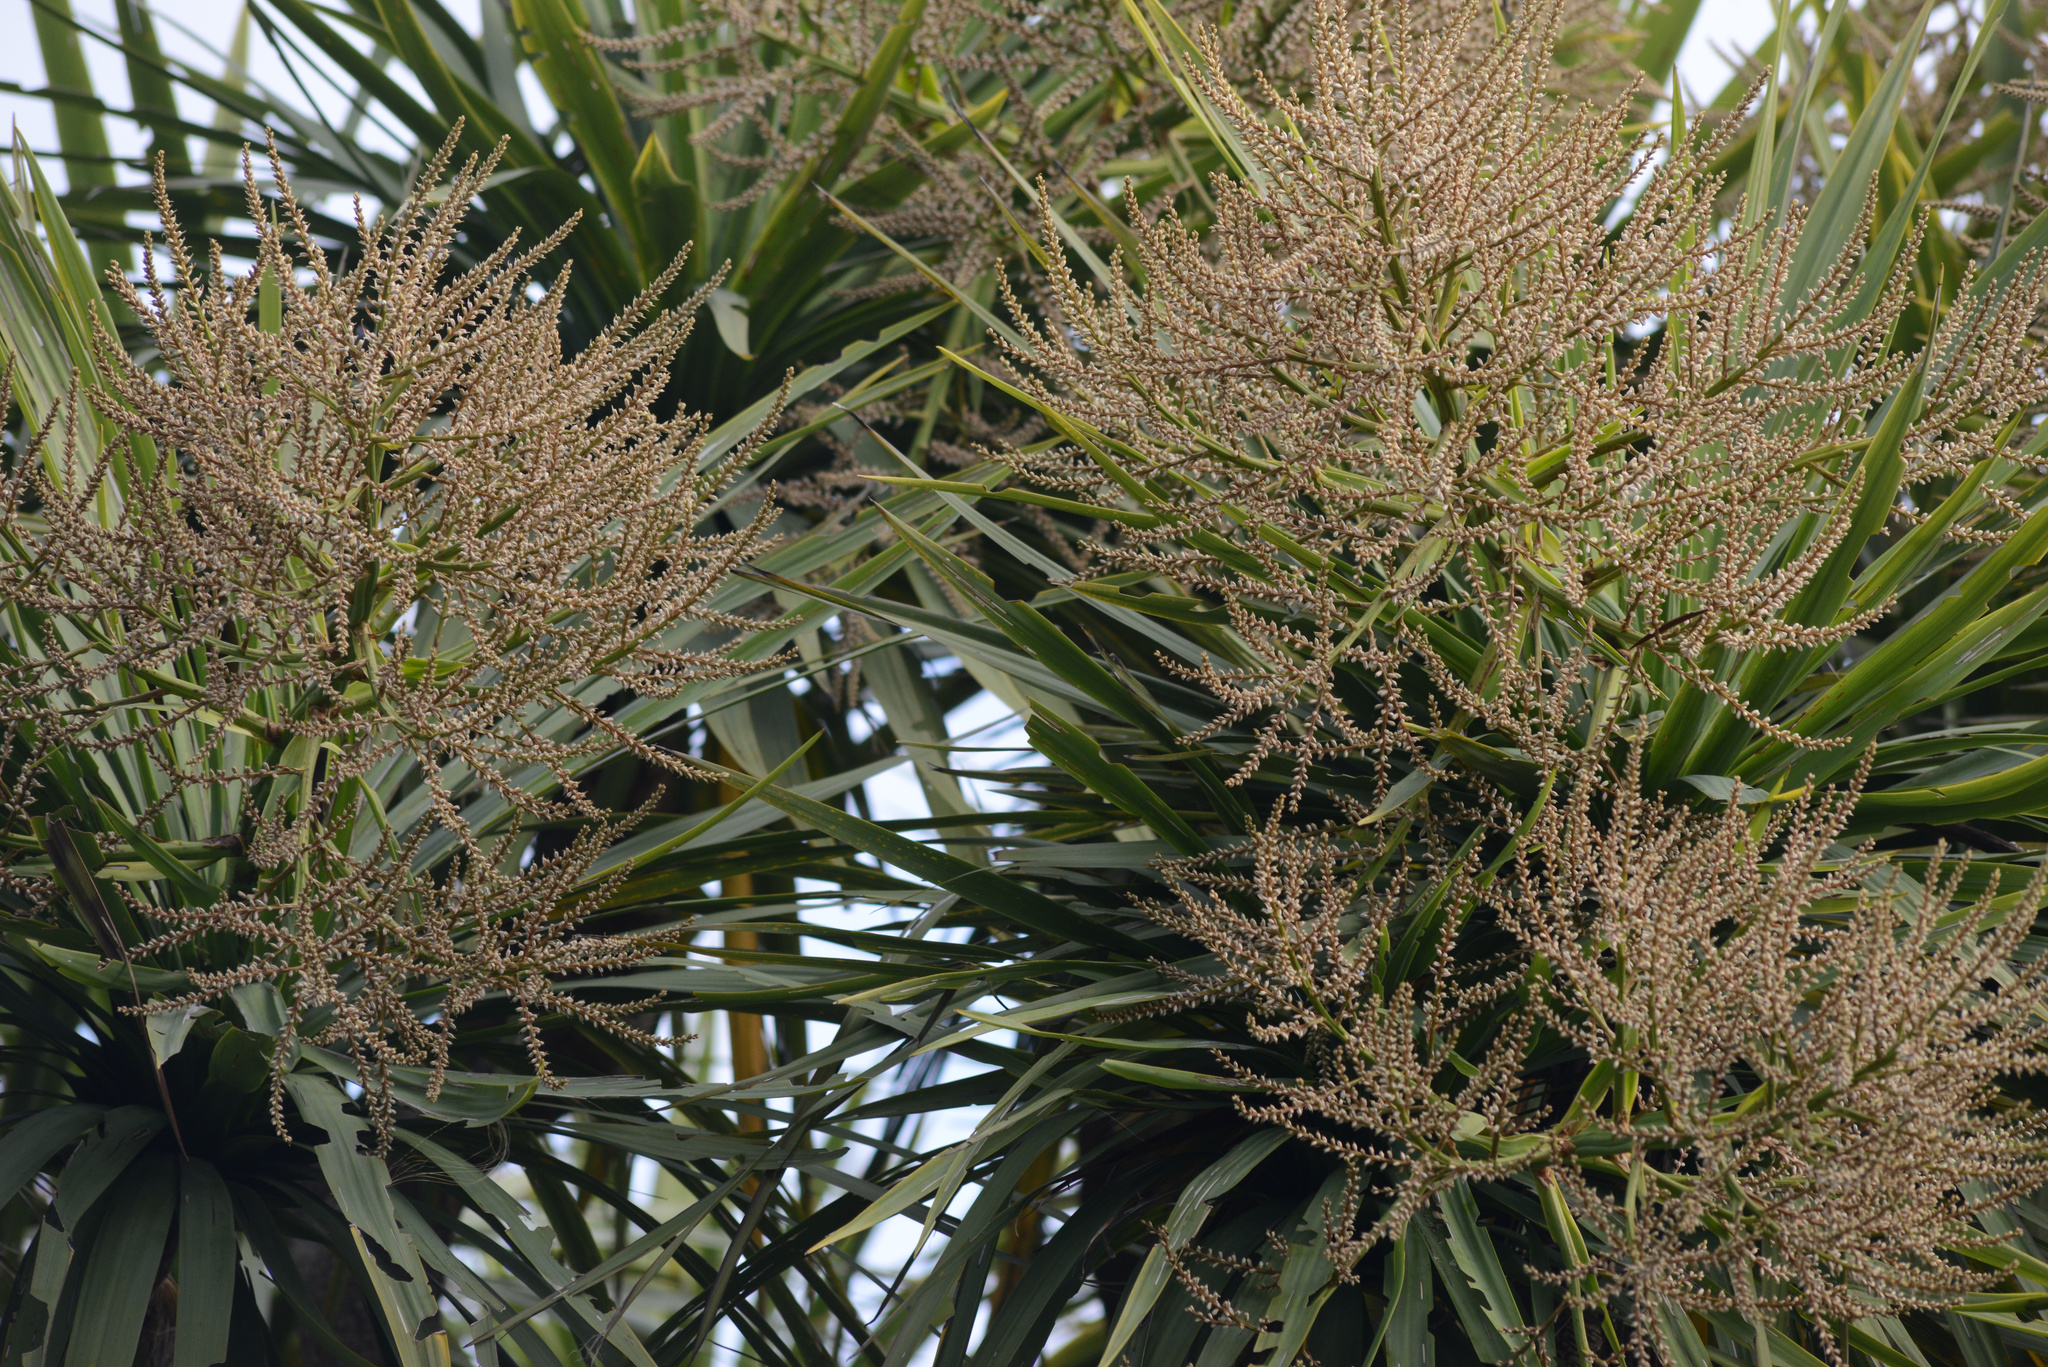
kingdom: Plantae
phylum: Tracheophyta
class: Liliopsida
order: Asparagales
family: Asparagaceae
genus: Cordyline
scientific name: Cordyline australis
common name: Cabbage-palm
